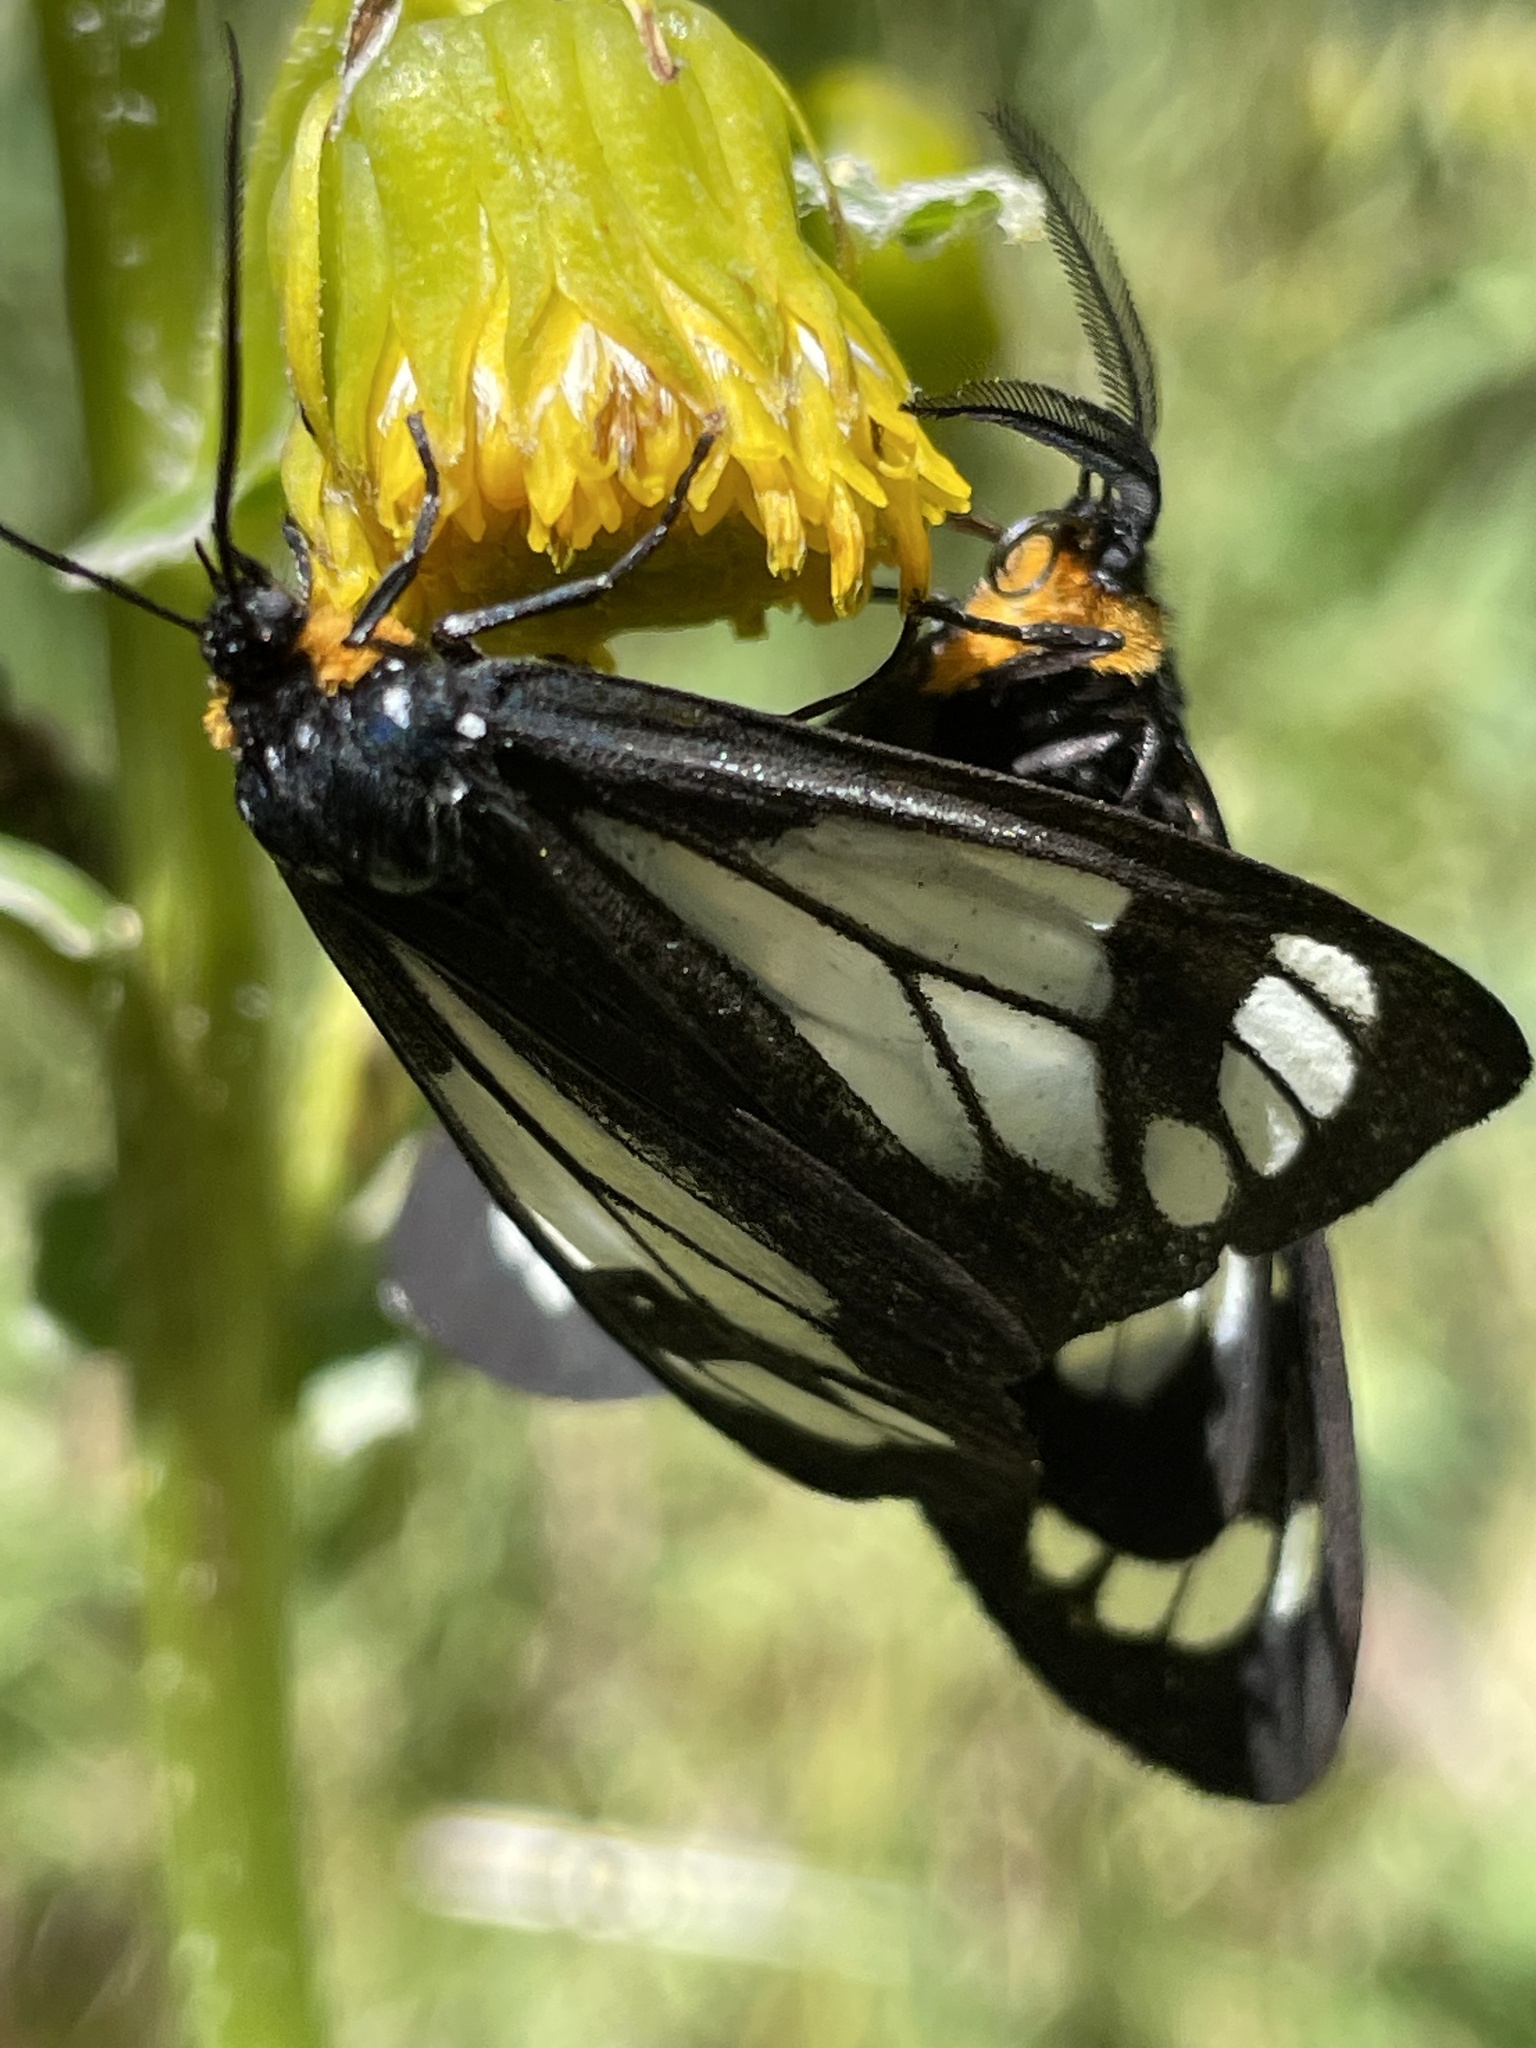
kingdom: Animalia
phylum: Arthropoda
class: Insecta
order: Lepidoptera
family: Erebidae
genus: Gnophaela
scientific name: Gnophaela vermiculata
